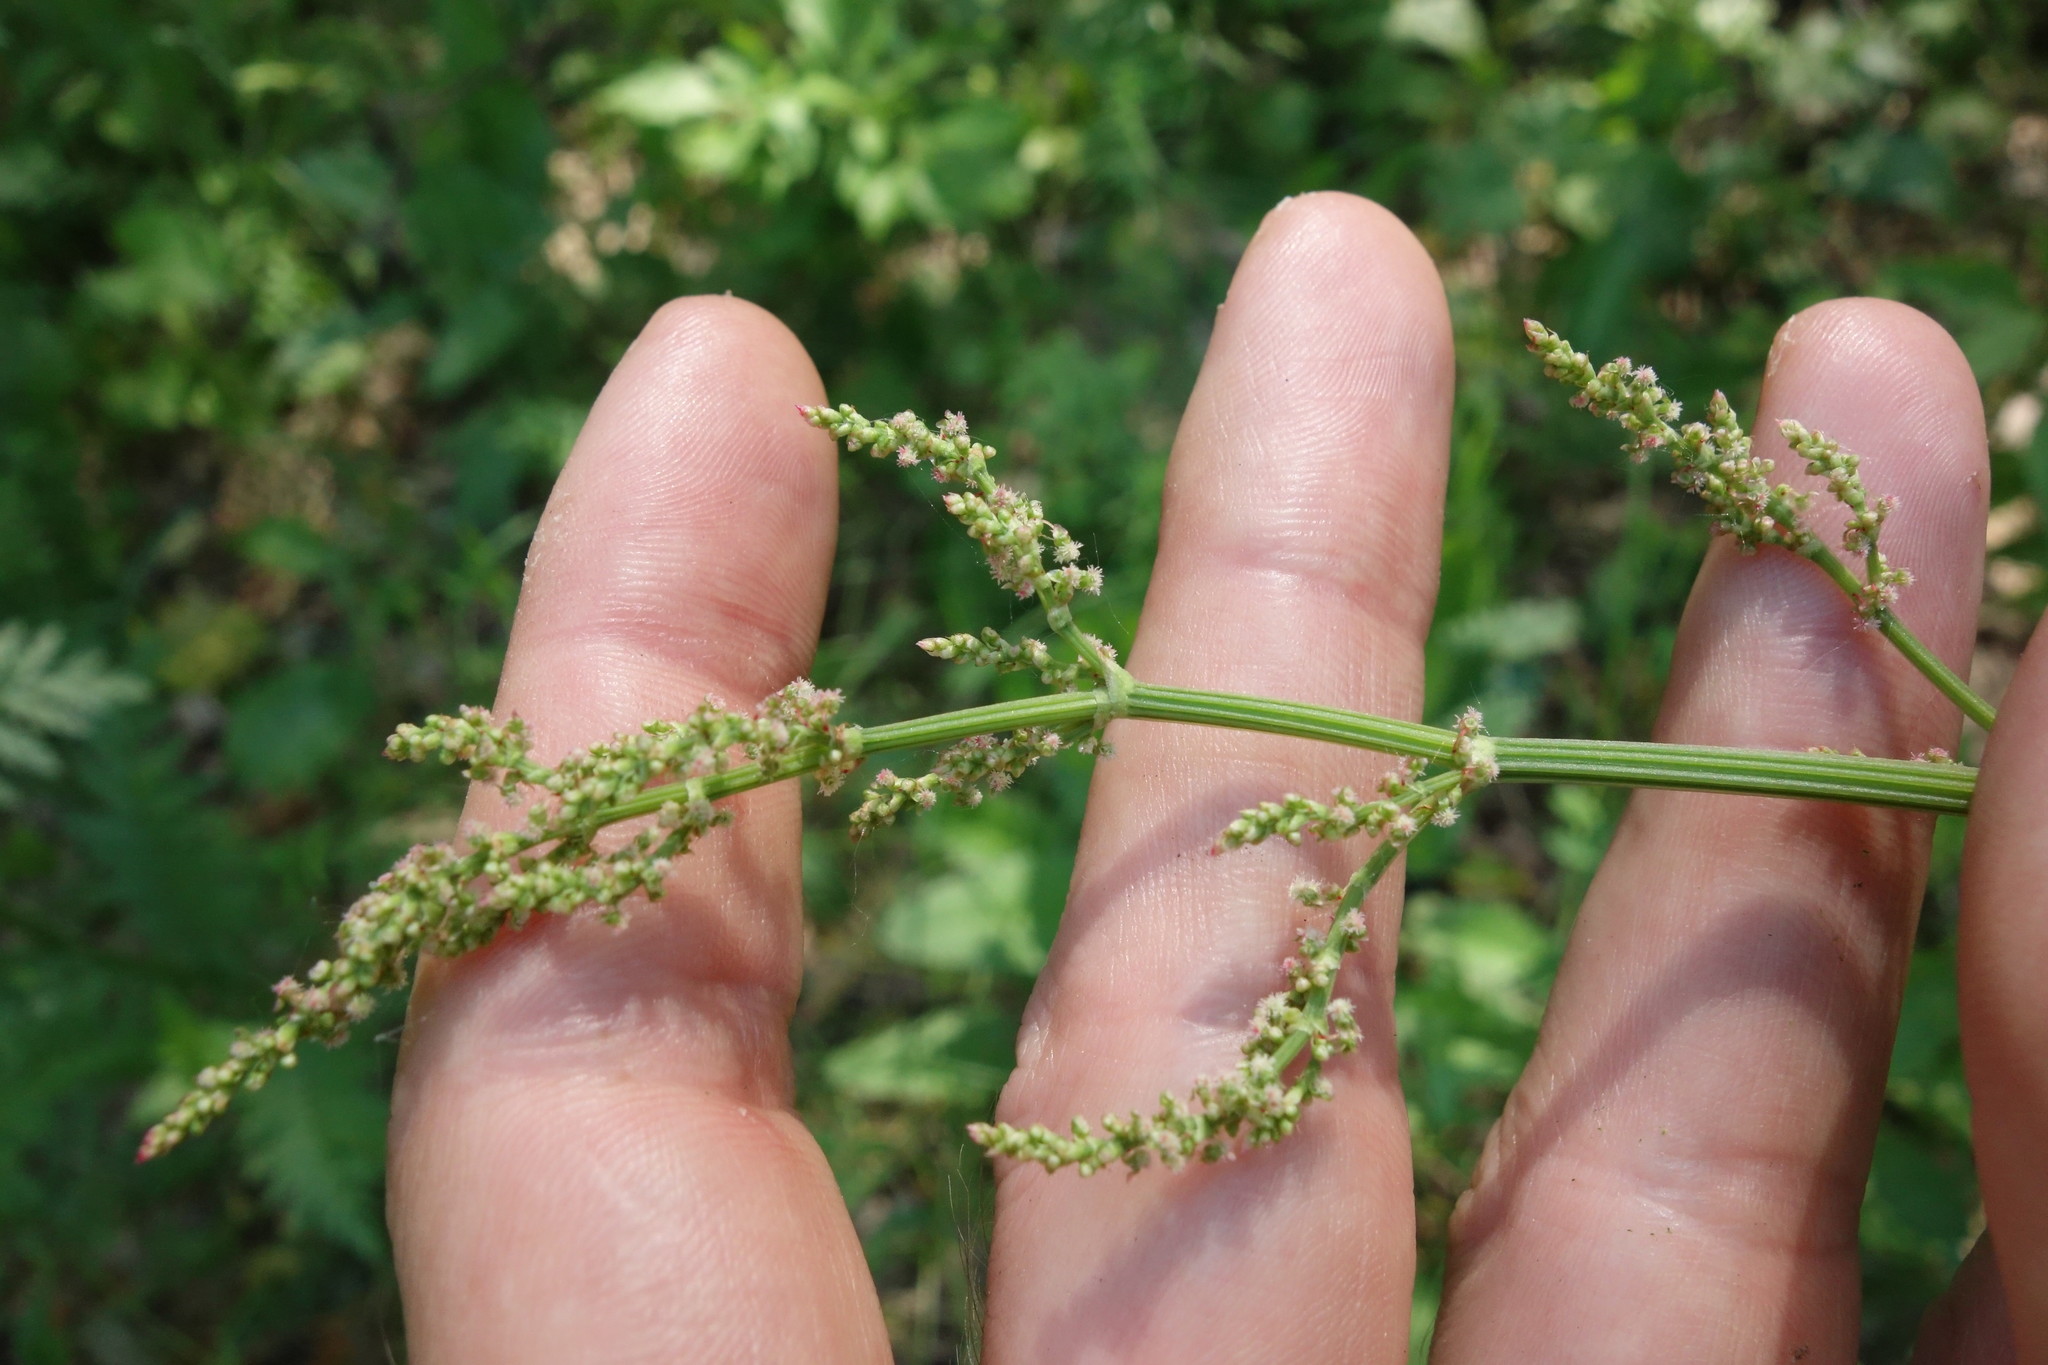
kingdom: Plantae
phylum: Tracheophyta
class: Magnoliopsida
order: Caryophyllales
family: Polygonaceae
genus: Rumex
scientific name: Rumex thyrsiflorus
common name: Garden sorrel
